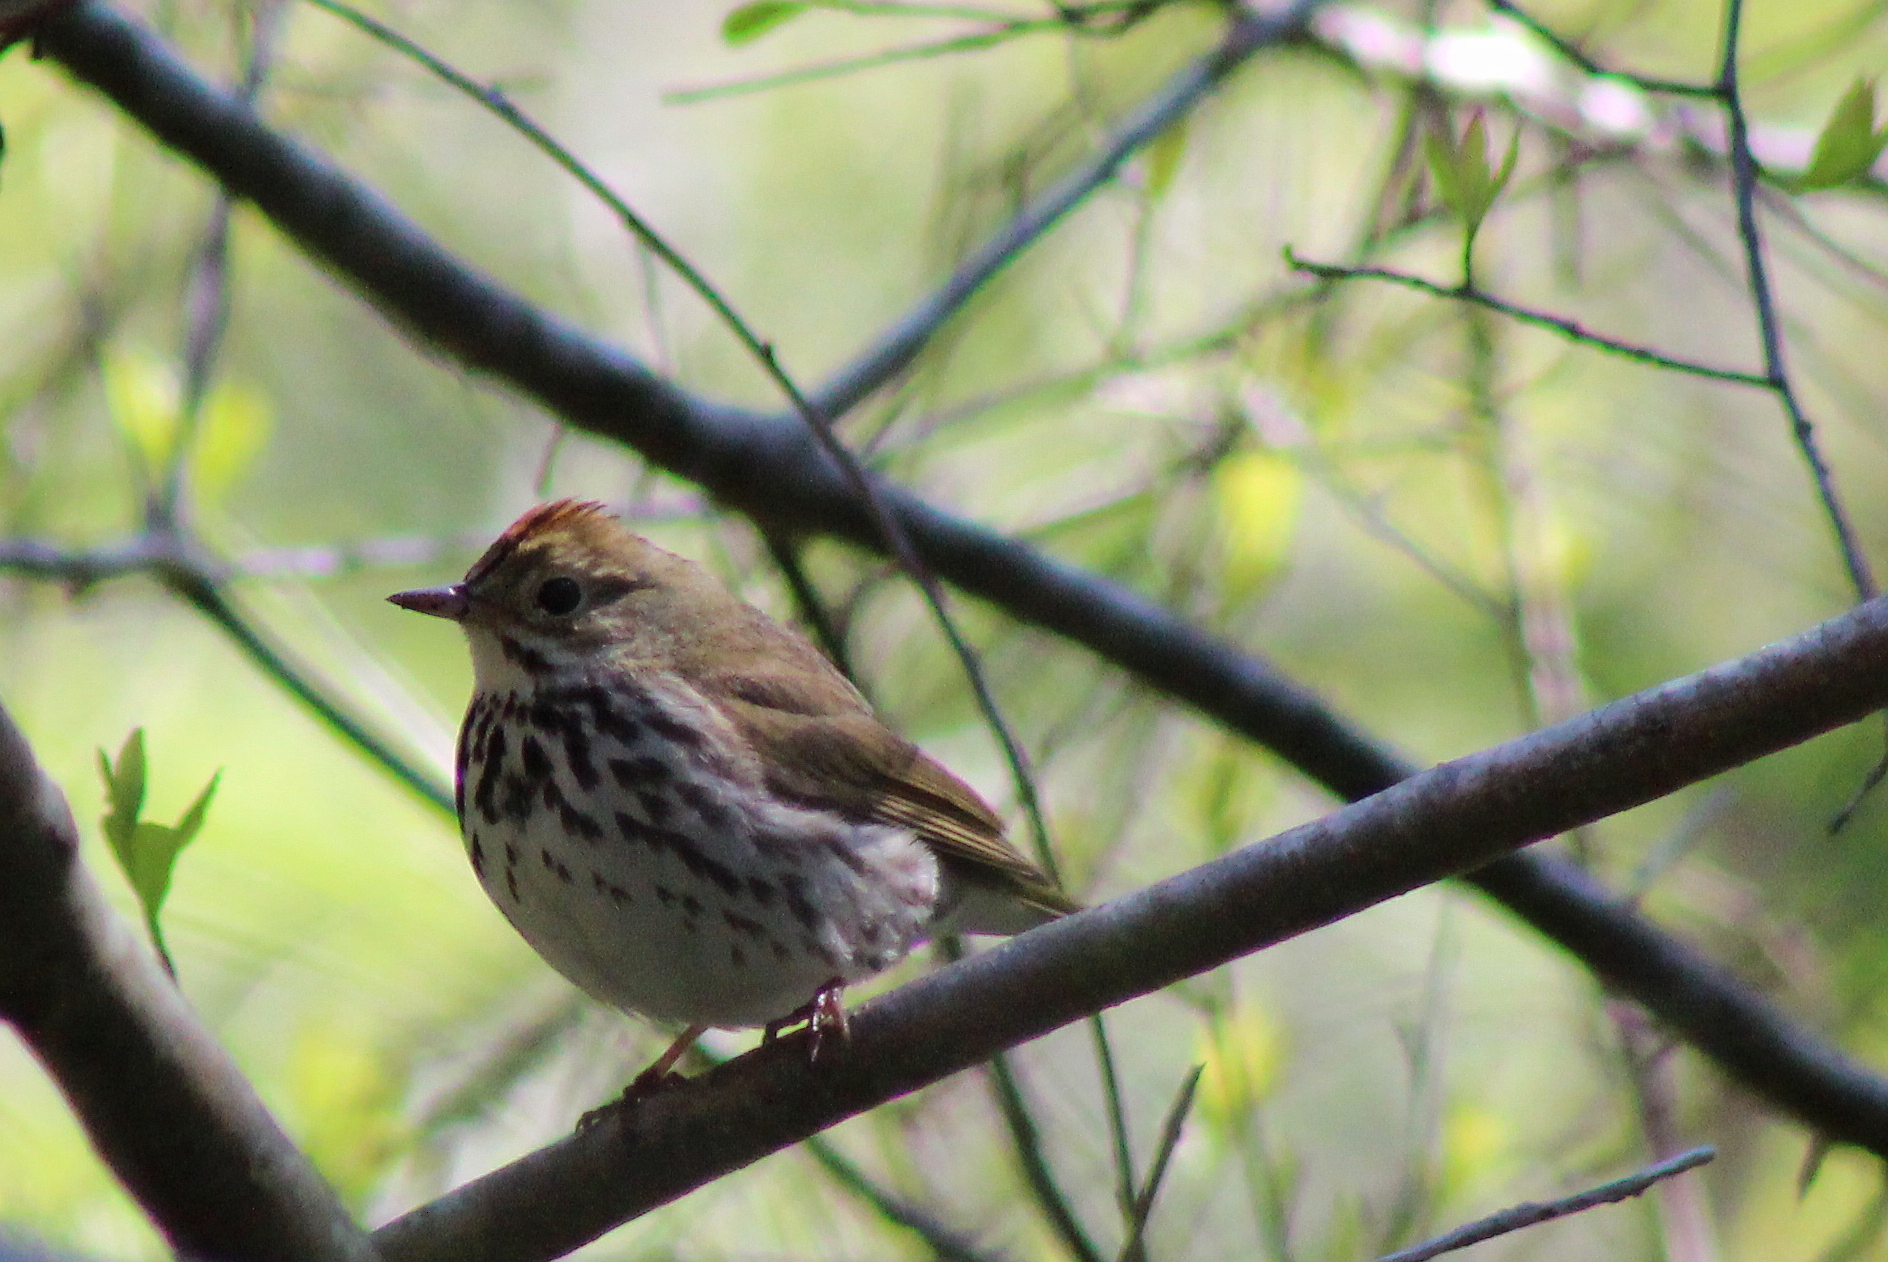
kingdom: Animalia
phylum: Chordata
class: Aves
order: Passeriformes
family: Parulidae
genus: Seiurus
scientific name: Seiurus aurocapilla
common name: Ovenbird
